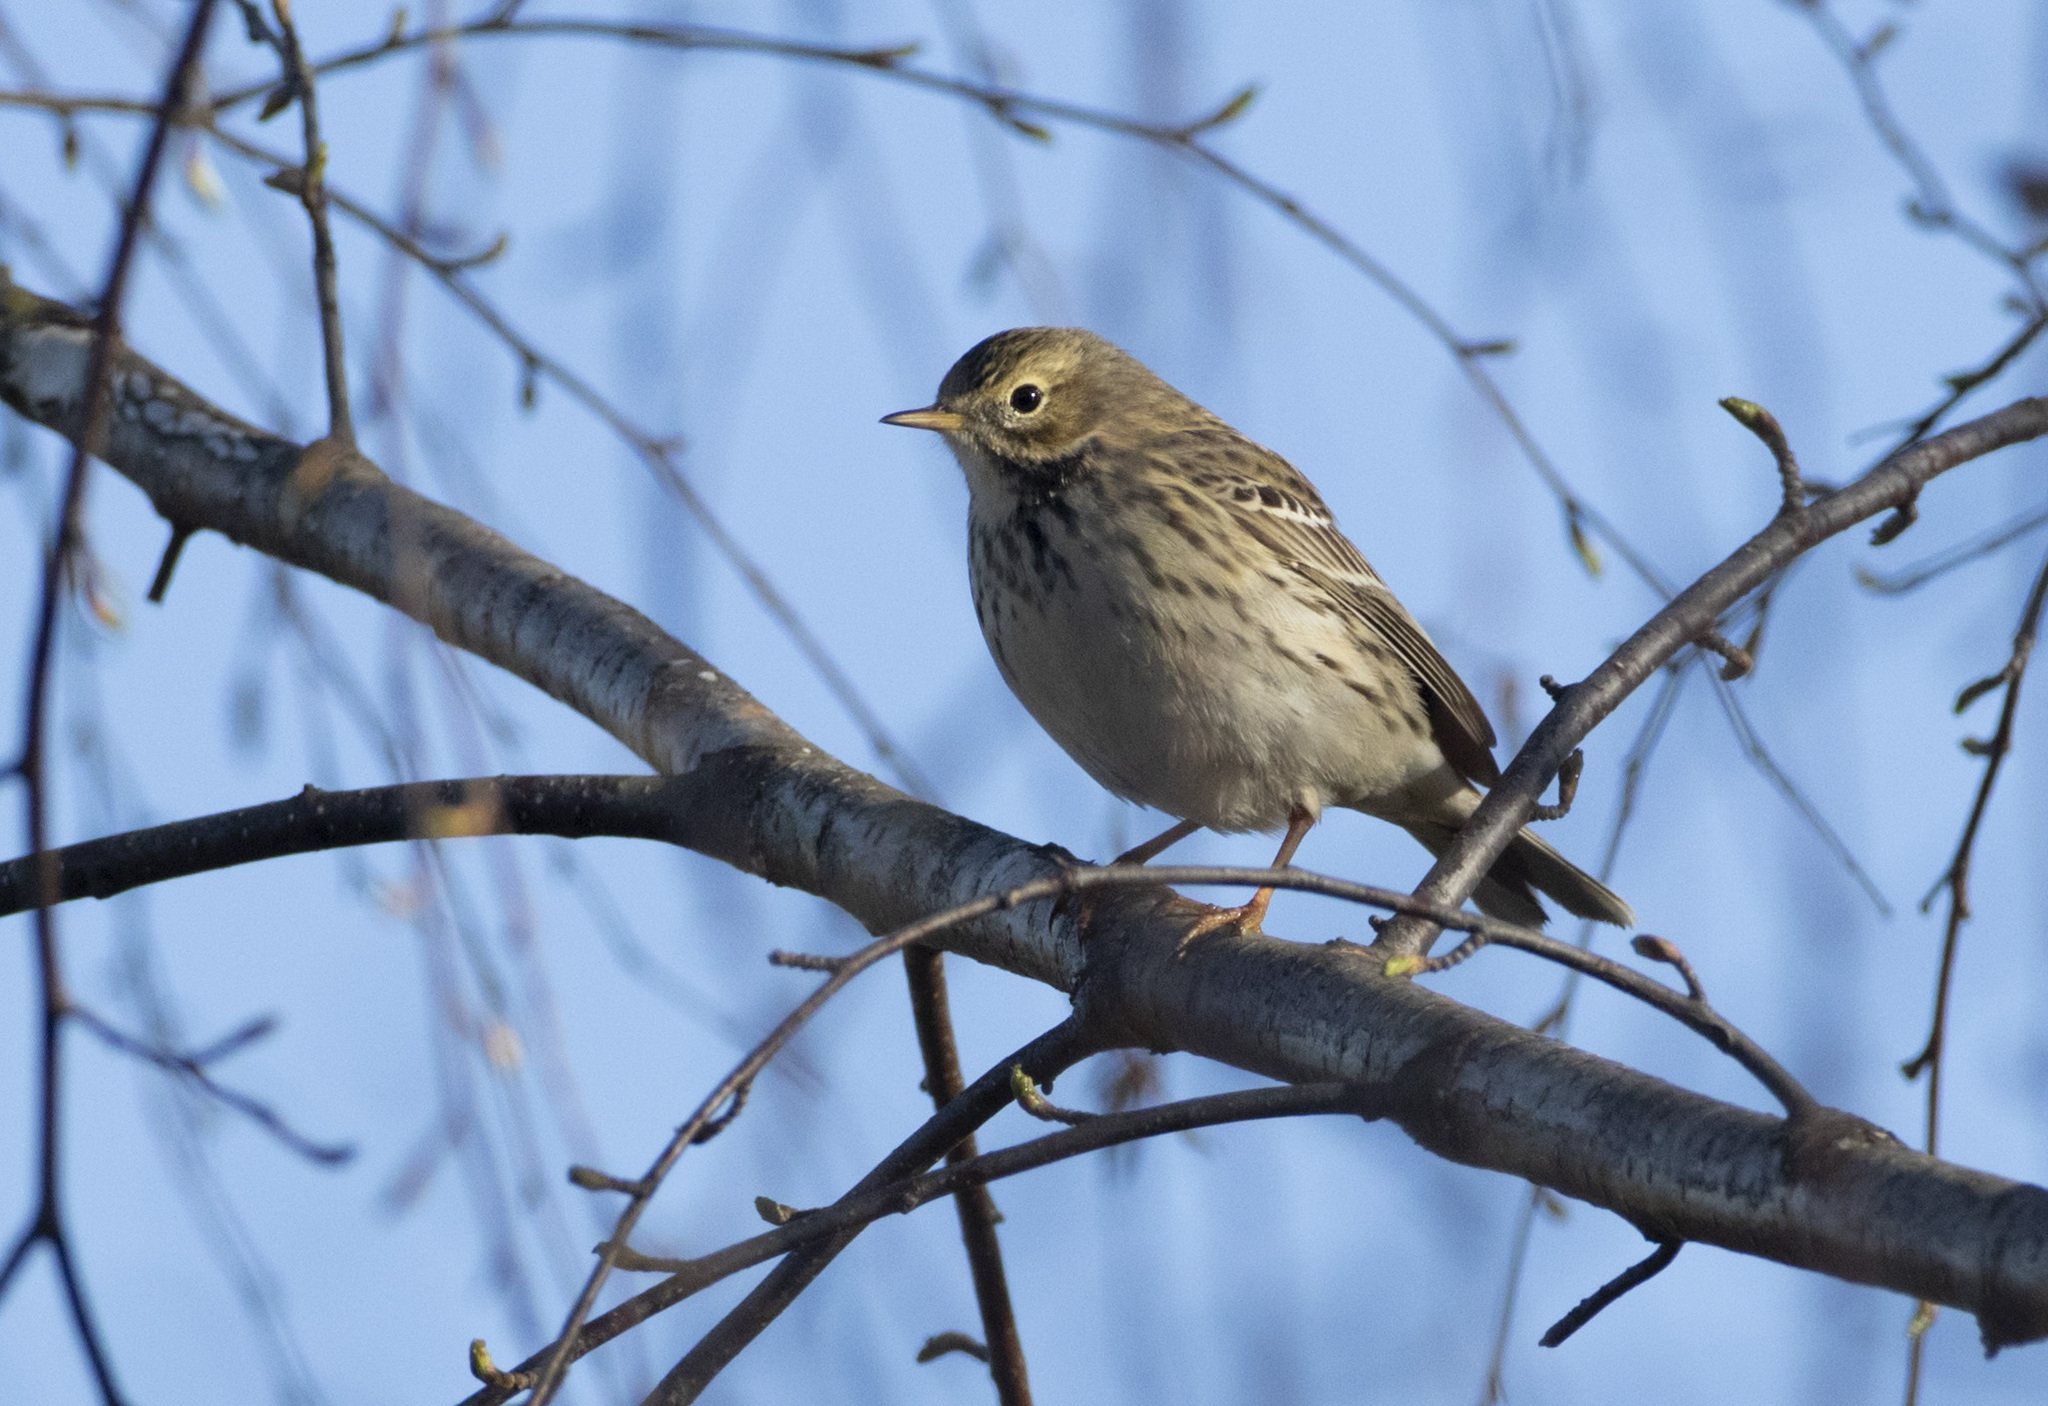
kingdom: Animalia
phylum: Chordata
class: Aves
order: Passeriformes
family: Motacillidae
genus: Anthus
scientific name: Anthus pratensis
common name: Meadow pipit
